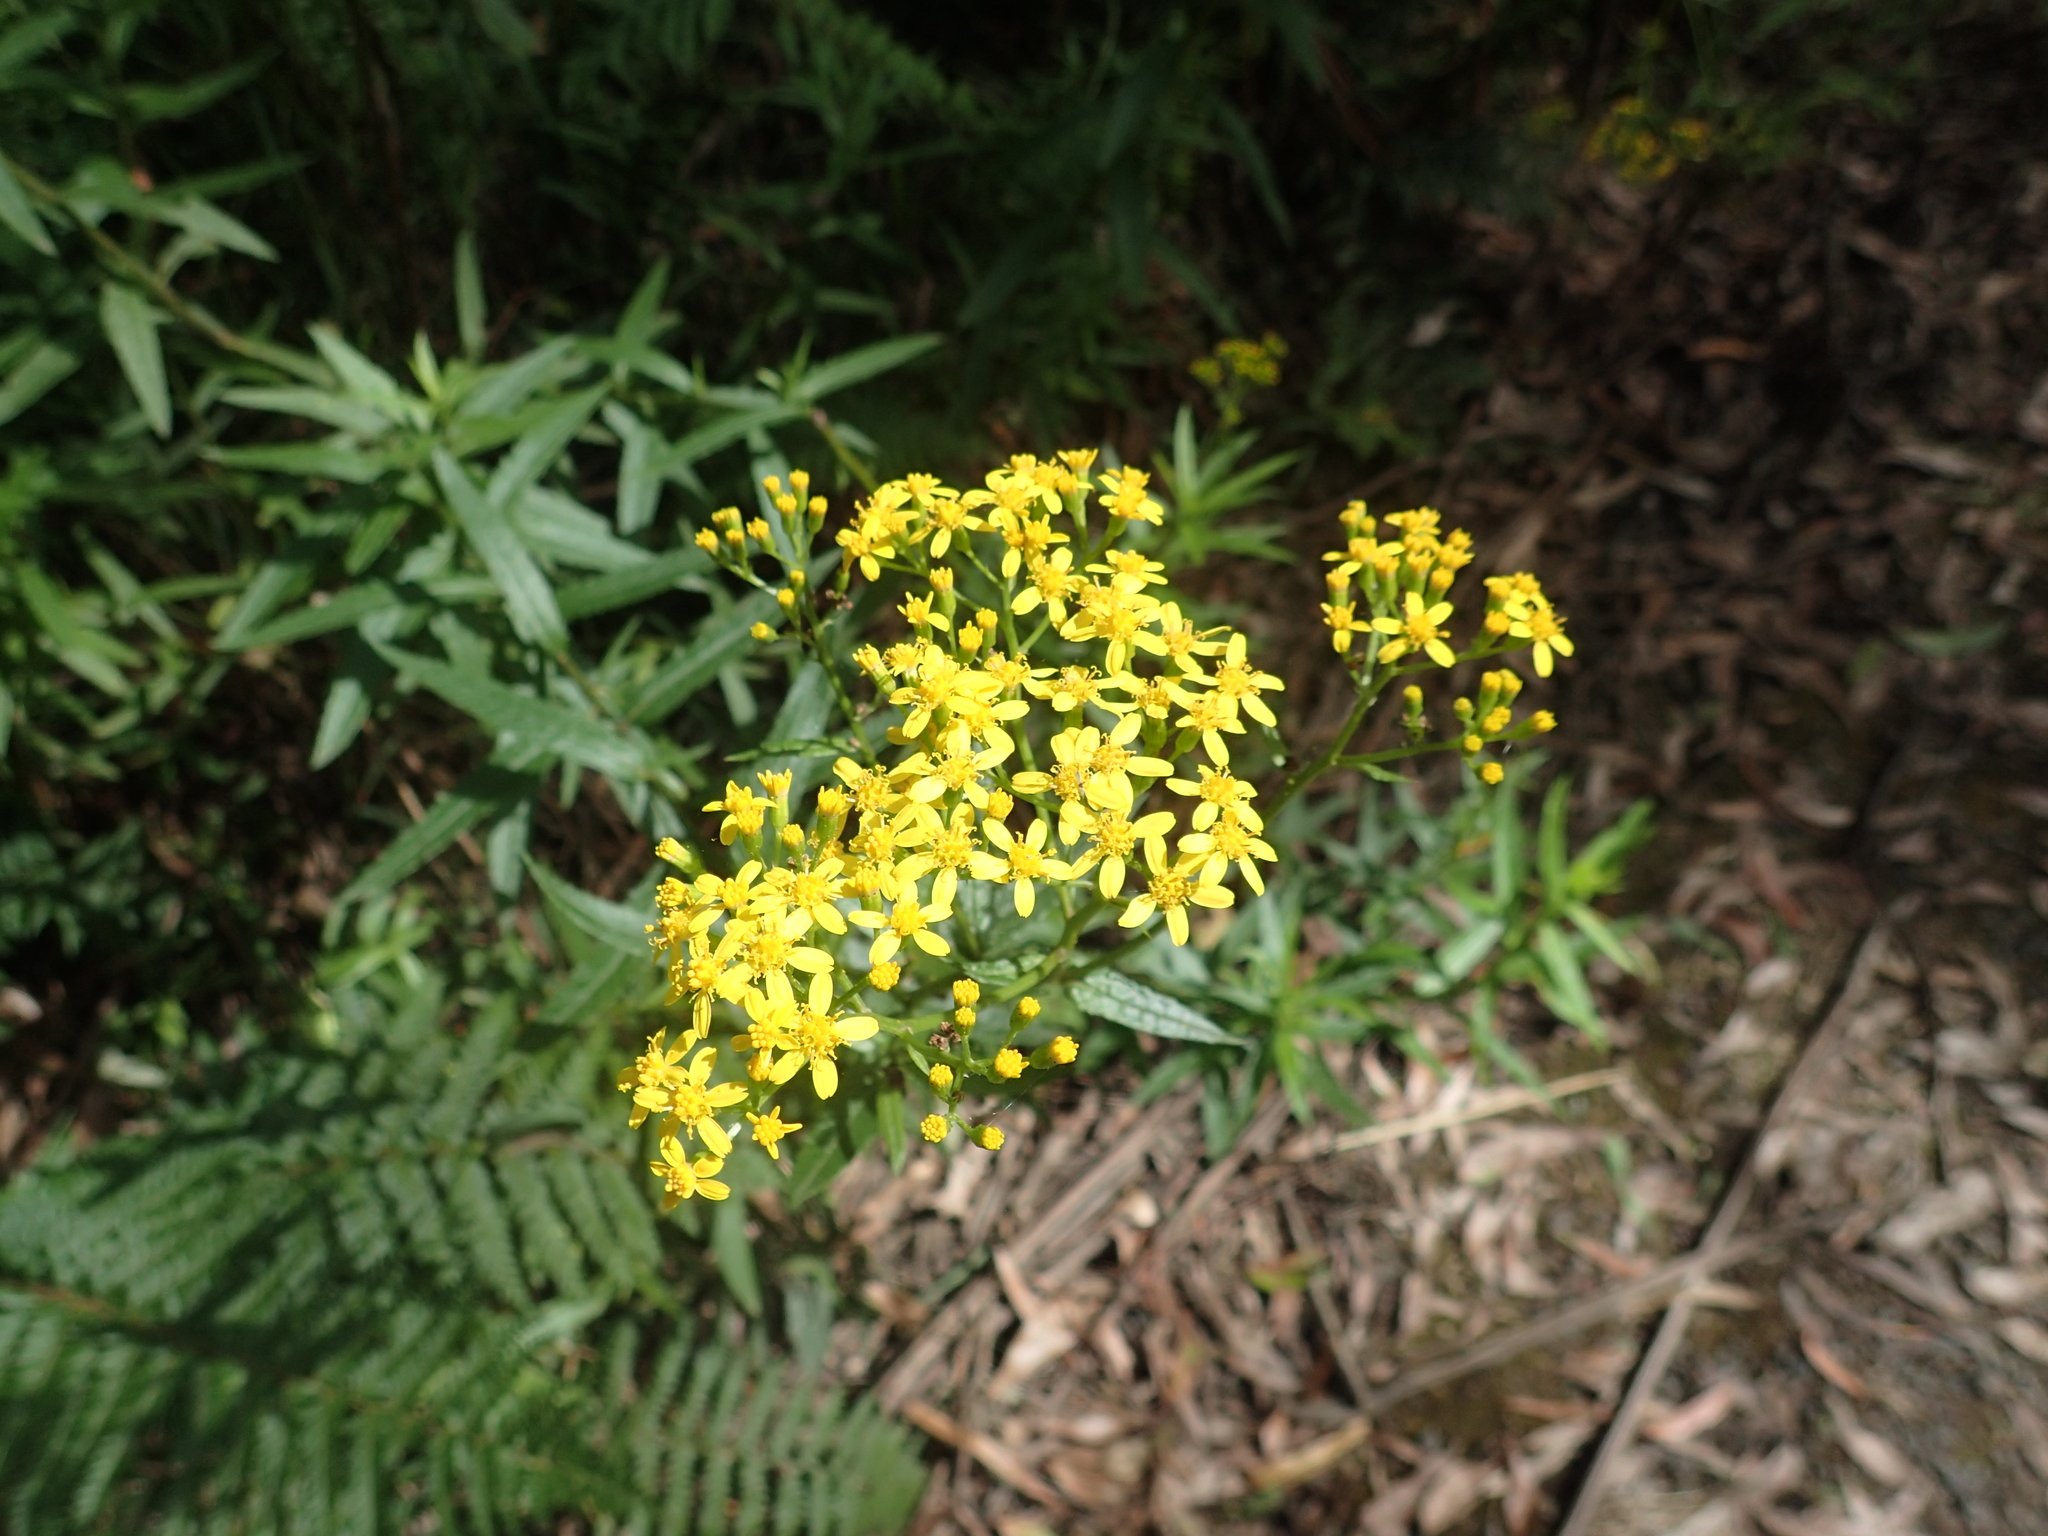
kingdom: Plantae
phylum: Tracheophyta
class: Magnoliopsida
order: Asterales
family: Asteraceae
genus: Senecio
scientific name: Senecio linearifolius
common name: Fireweed groundsel
